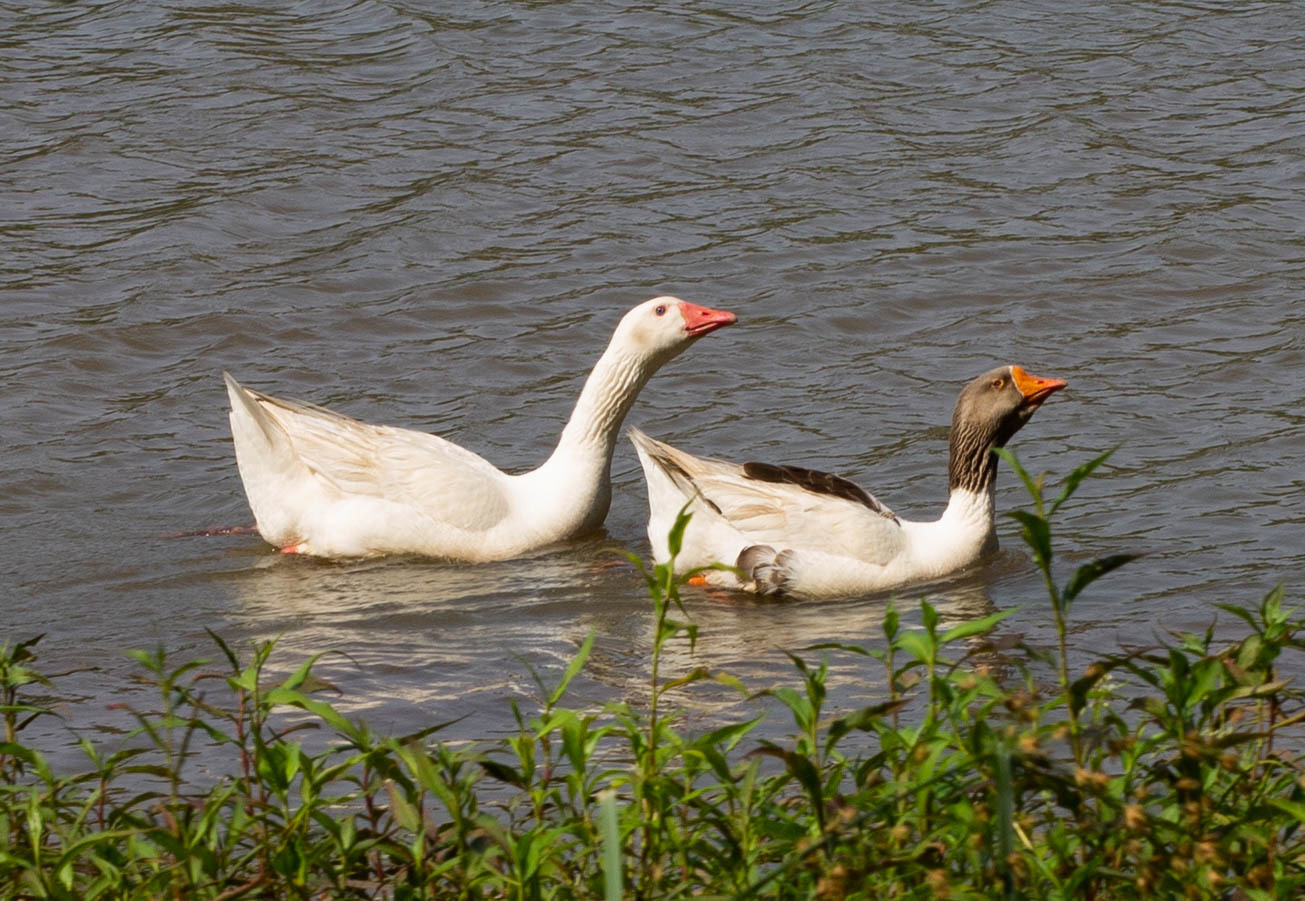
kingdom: Animalia
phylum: Chordata
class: Aves
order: Anseriformes
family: Anatidae
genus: Anser
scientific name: Anser anser
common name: Greylag goose
